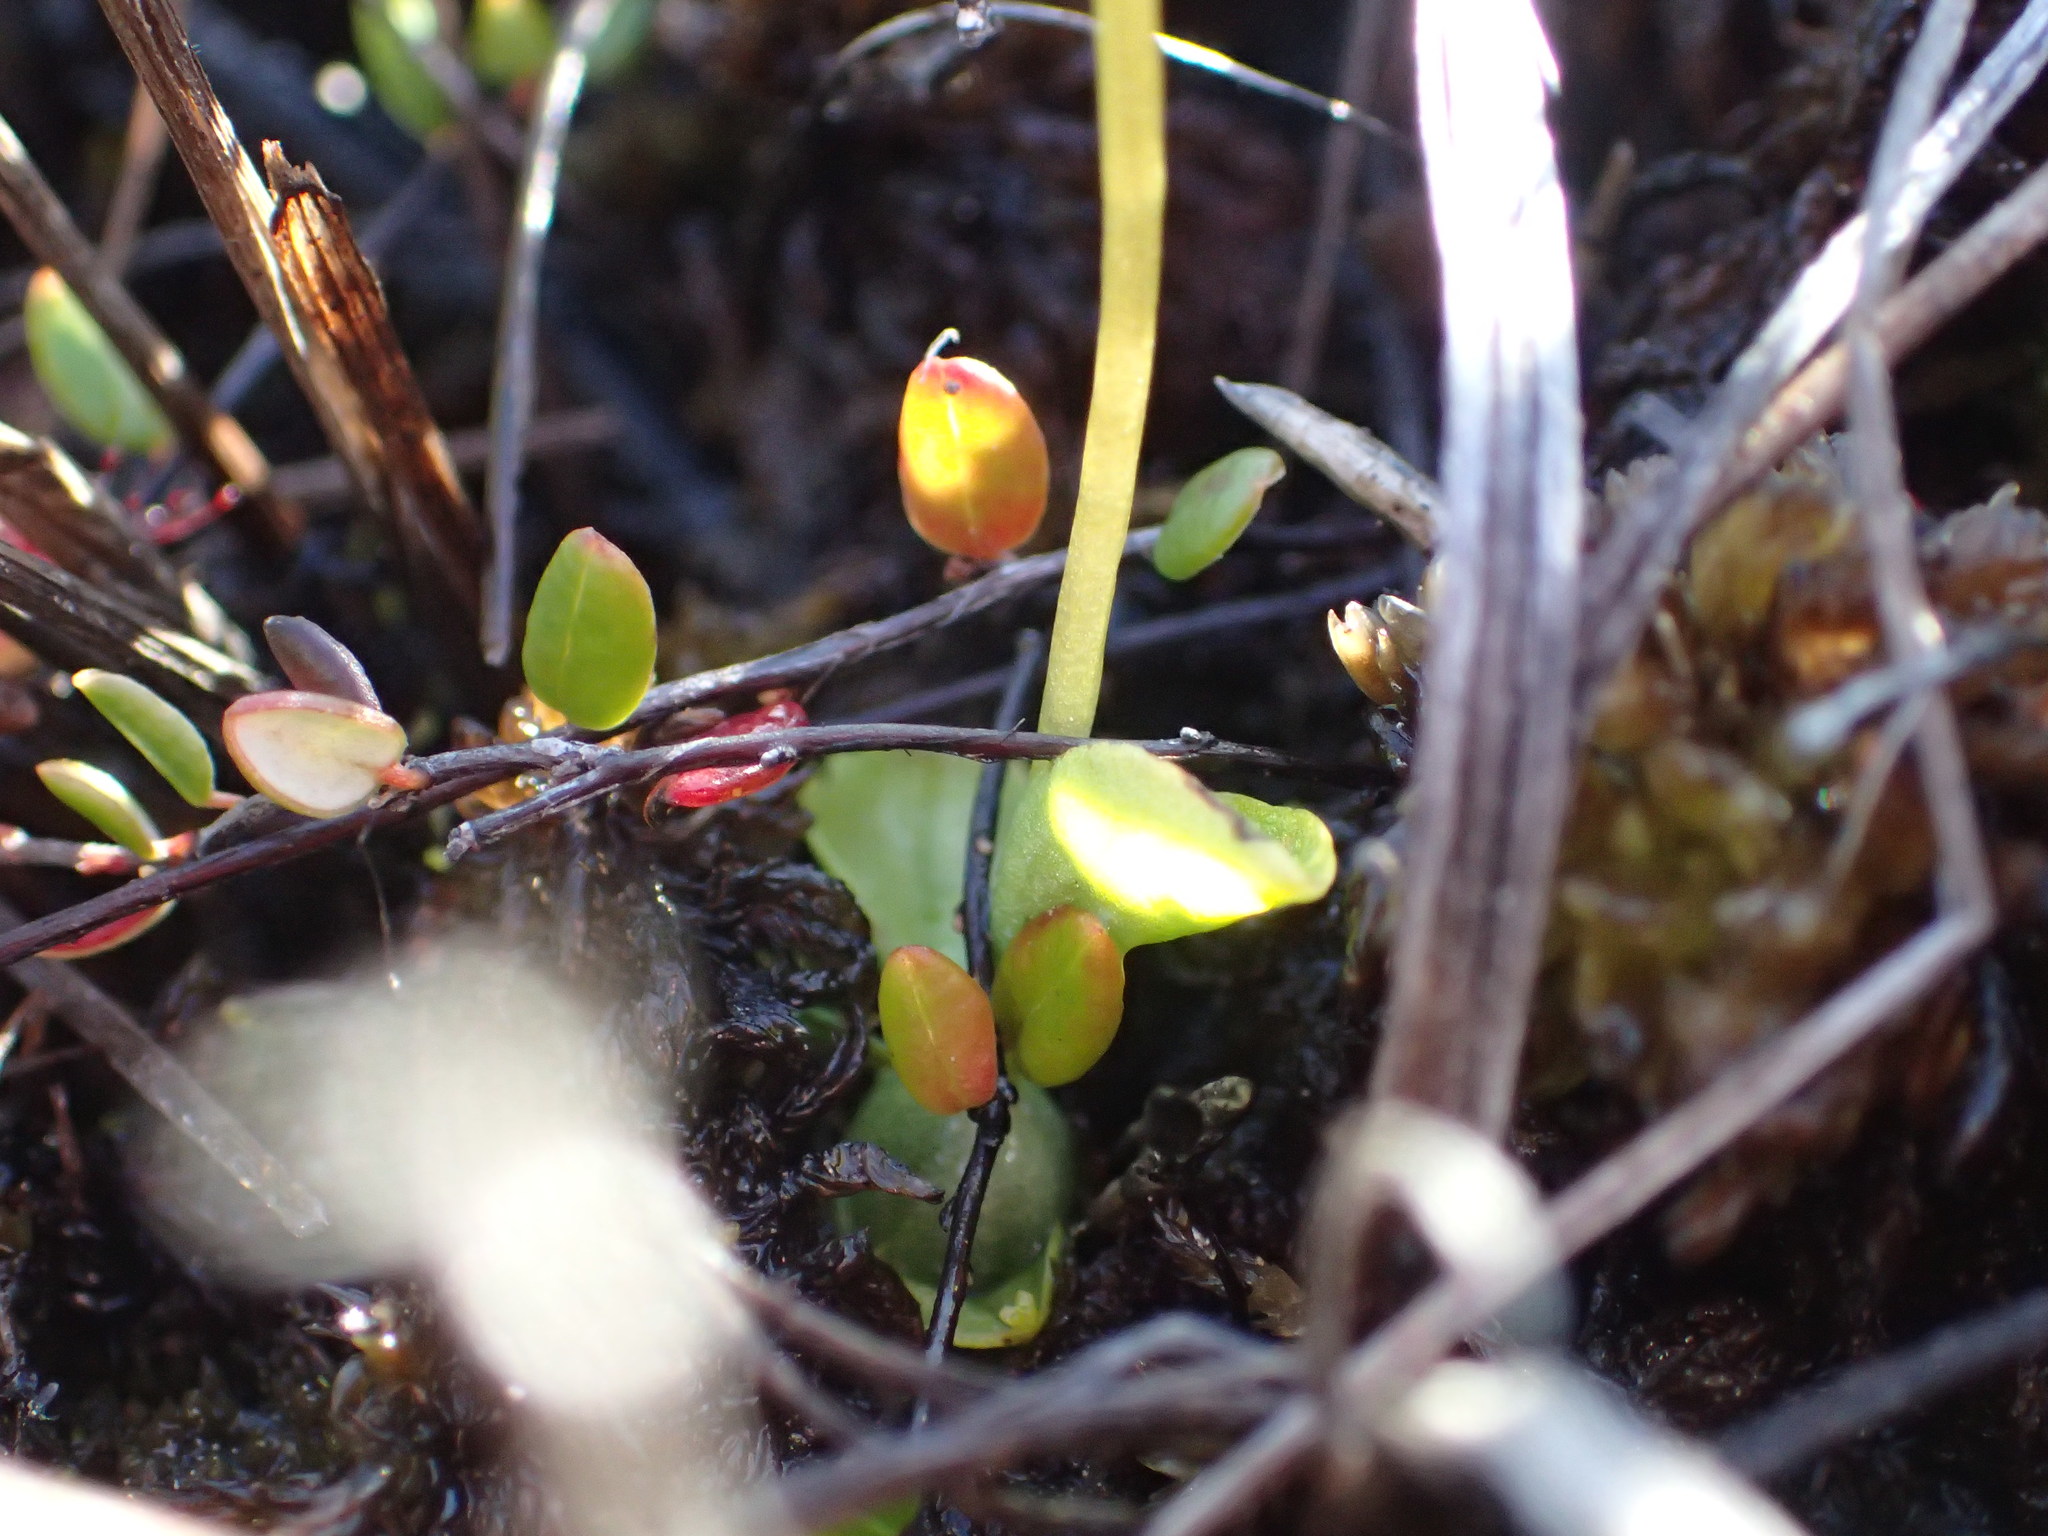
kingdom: Plantae
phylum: Tracheophyta
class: Liliopsida
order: Asparagales
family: Orchidaceae
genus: Hammarbya
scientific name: Hammarbya paludosa
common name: Bog orchid
